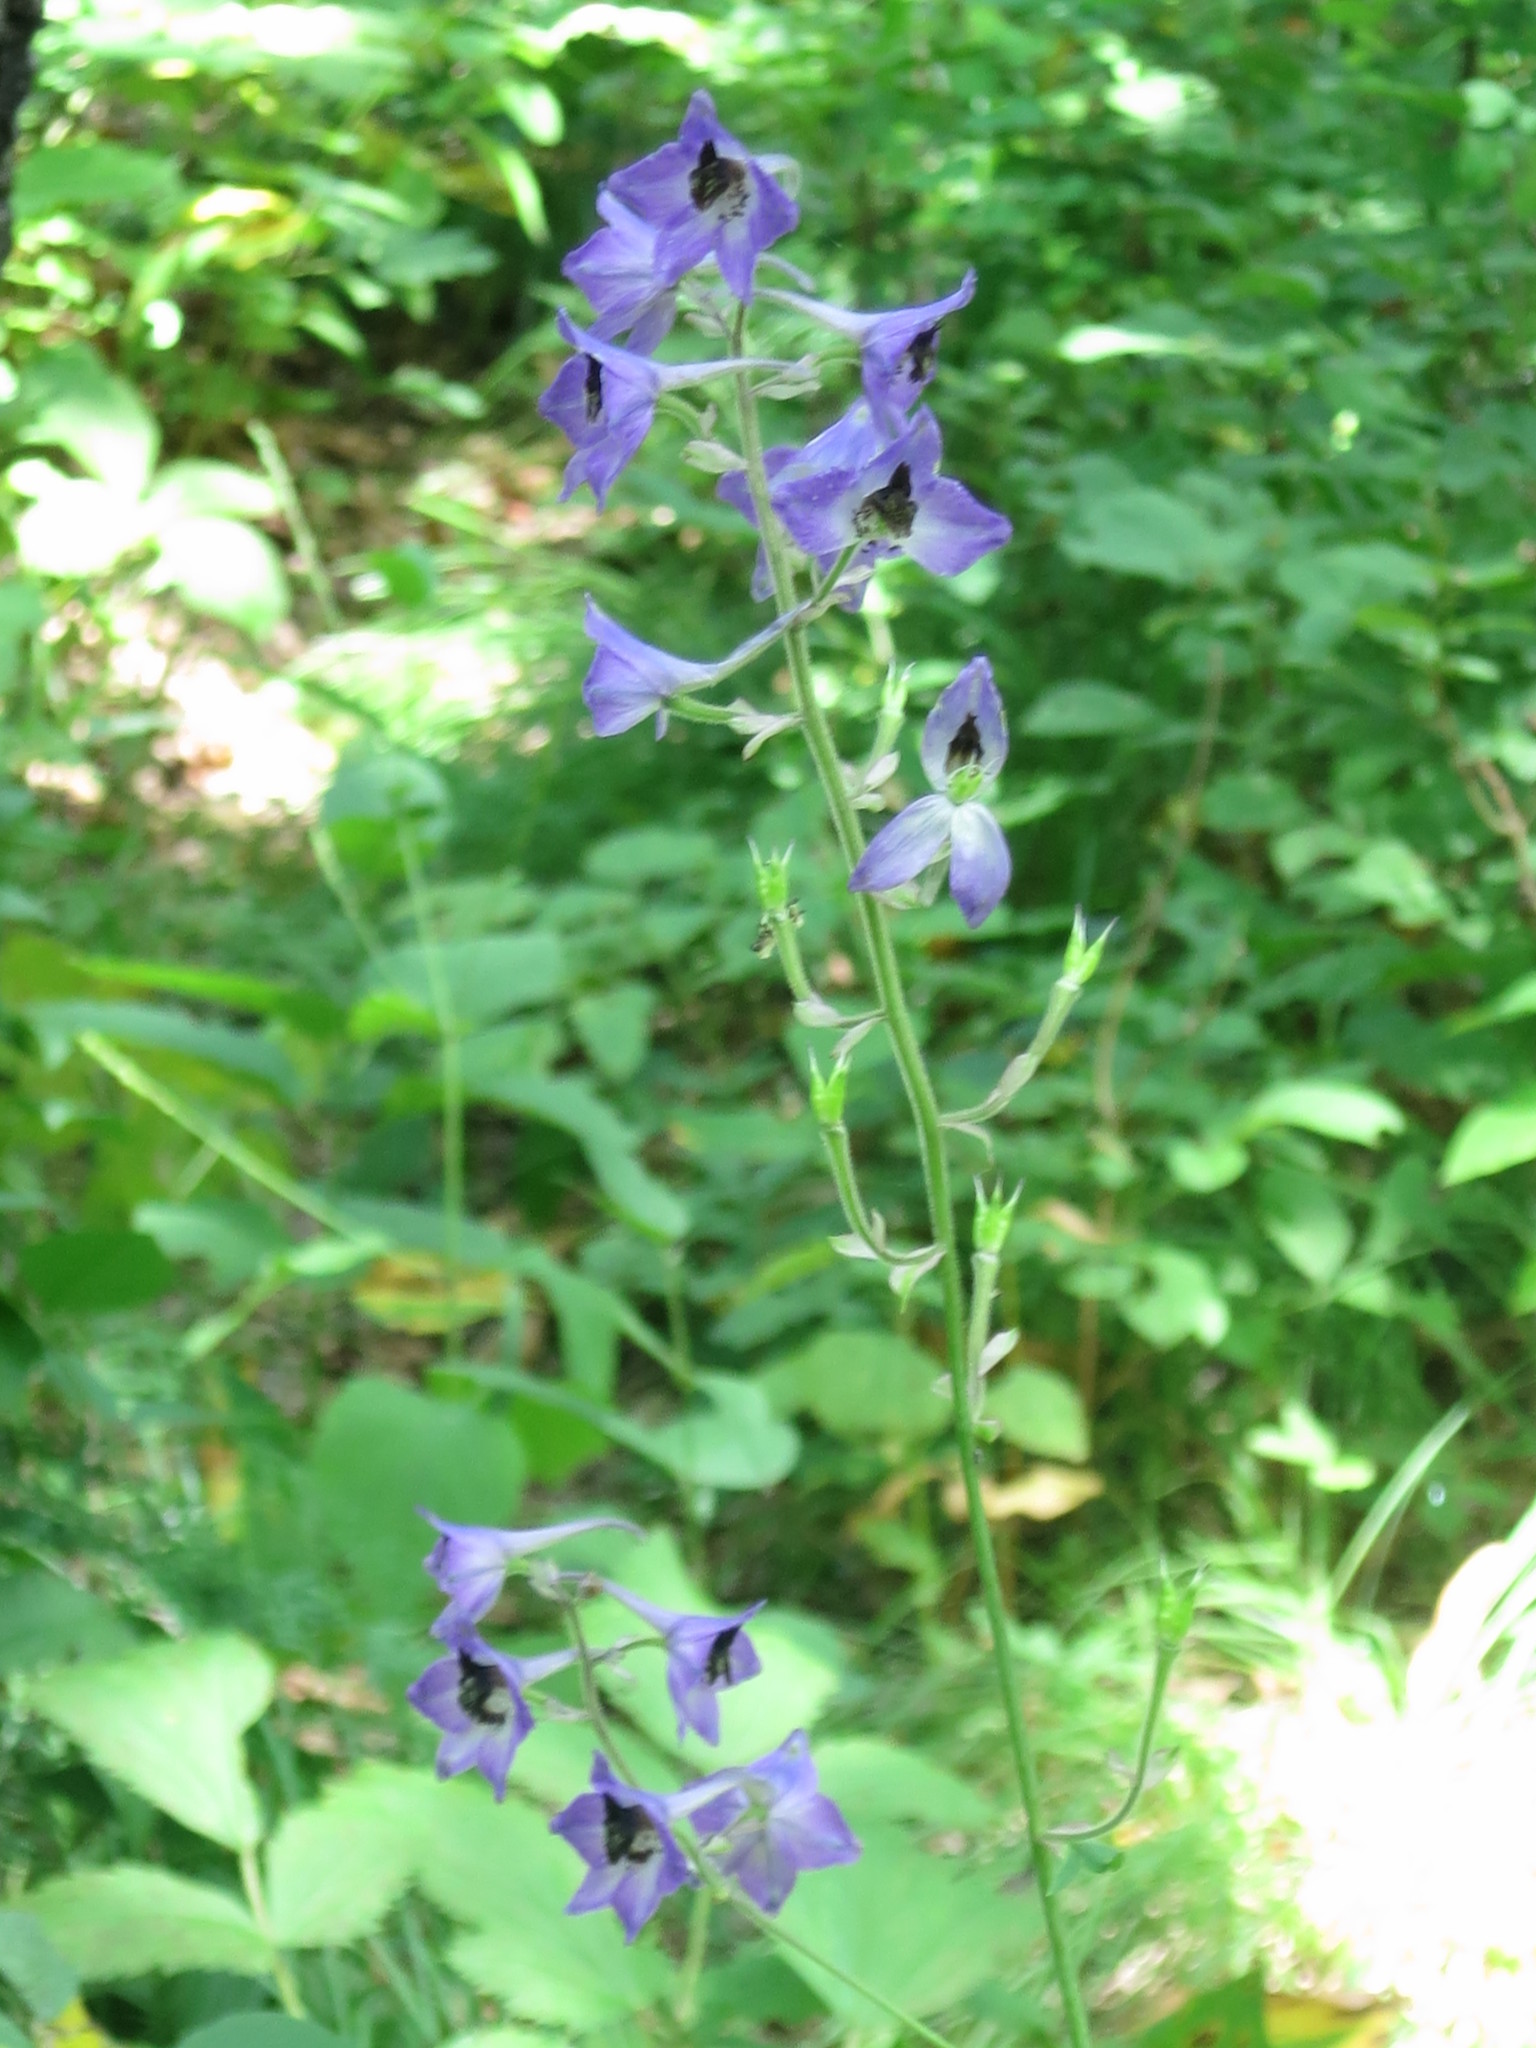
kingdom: Plantae
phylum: Tracheophyta
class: Magnoliopsida
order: Ranunculales
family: Ranunculaceae
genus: Delphinium
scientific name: Delphinium maackianum
